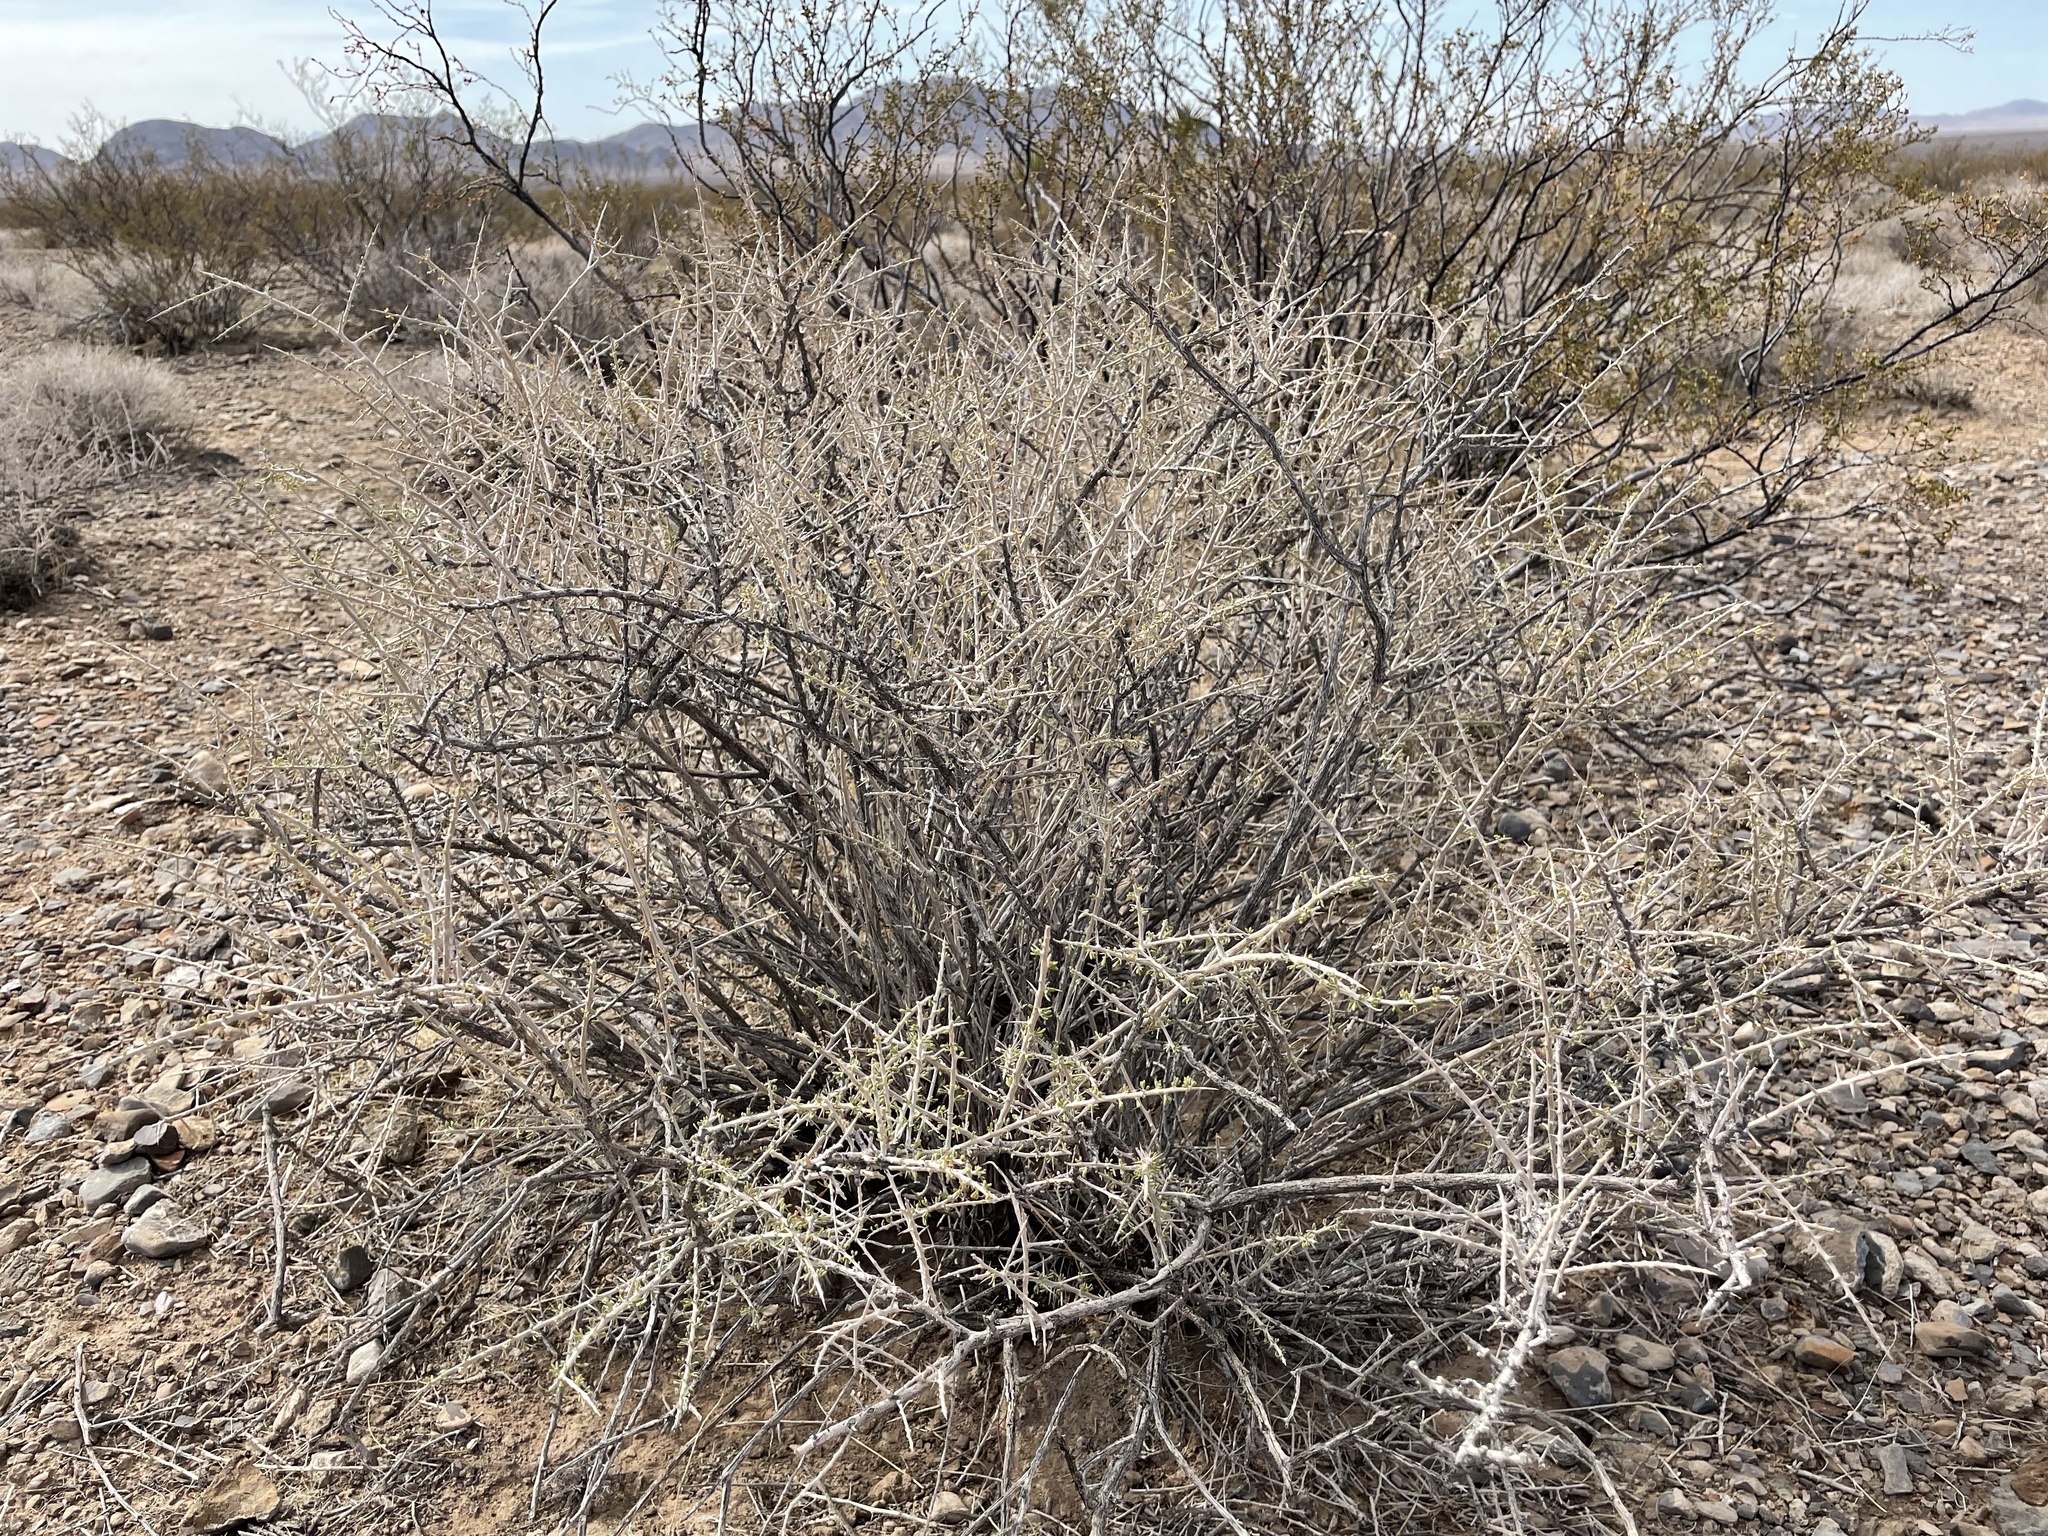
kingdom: Plantae
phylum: Tracheophyta
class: Magnoliopsida
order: Solanales
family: Solanaceae
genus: Lycium
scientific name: Lycium andersonii
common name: Water-jacket
